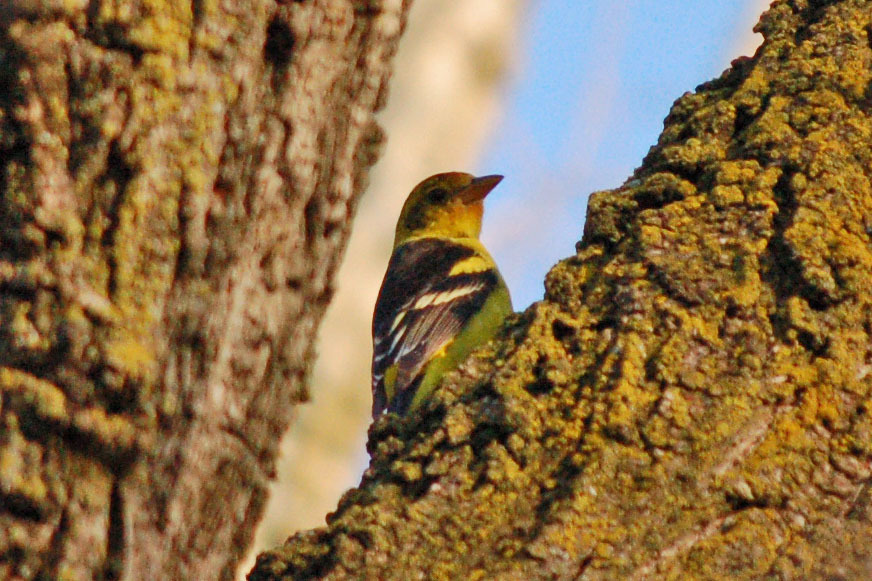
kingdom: Animalia
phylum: Chordata
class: Aves
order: Passeriformes
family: Cardinalidae
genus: Piranga
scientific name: Piranga ludoviciana
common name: Western tanager
